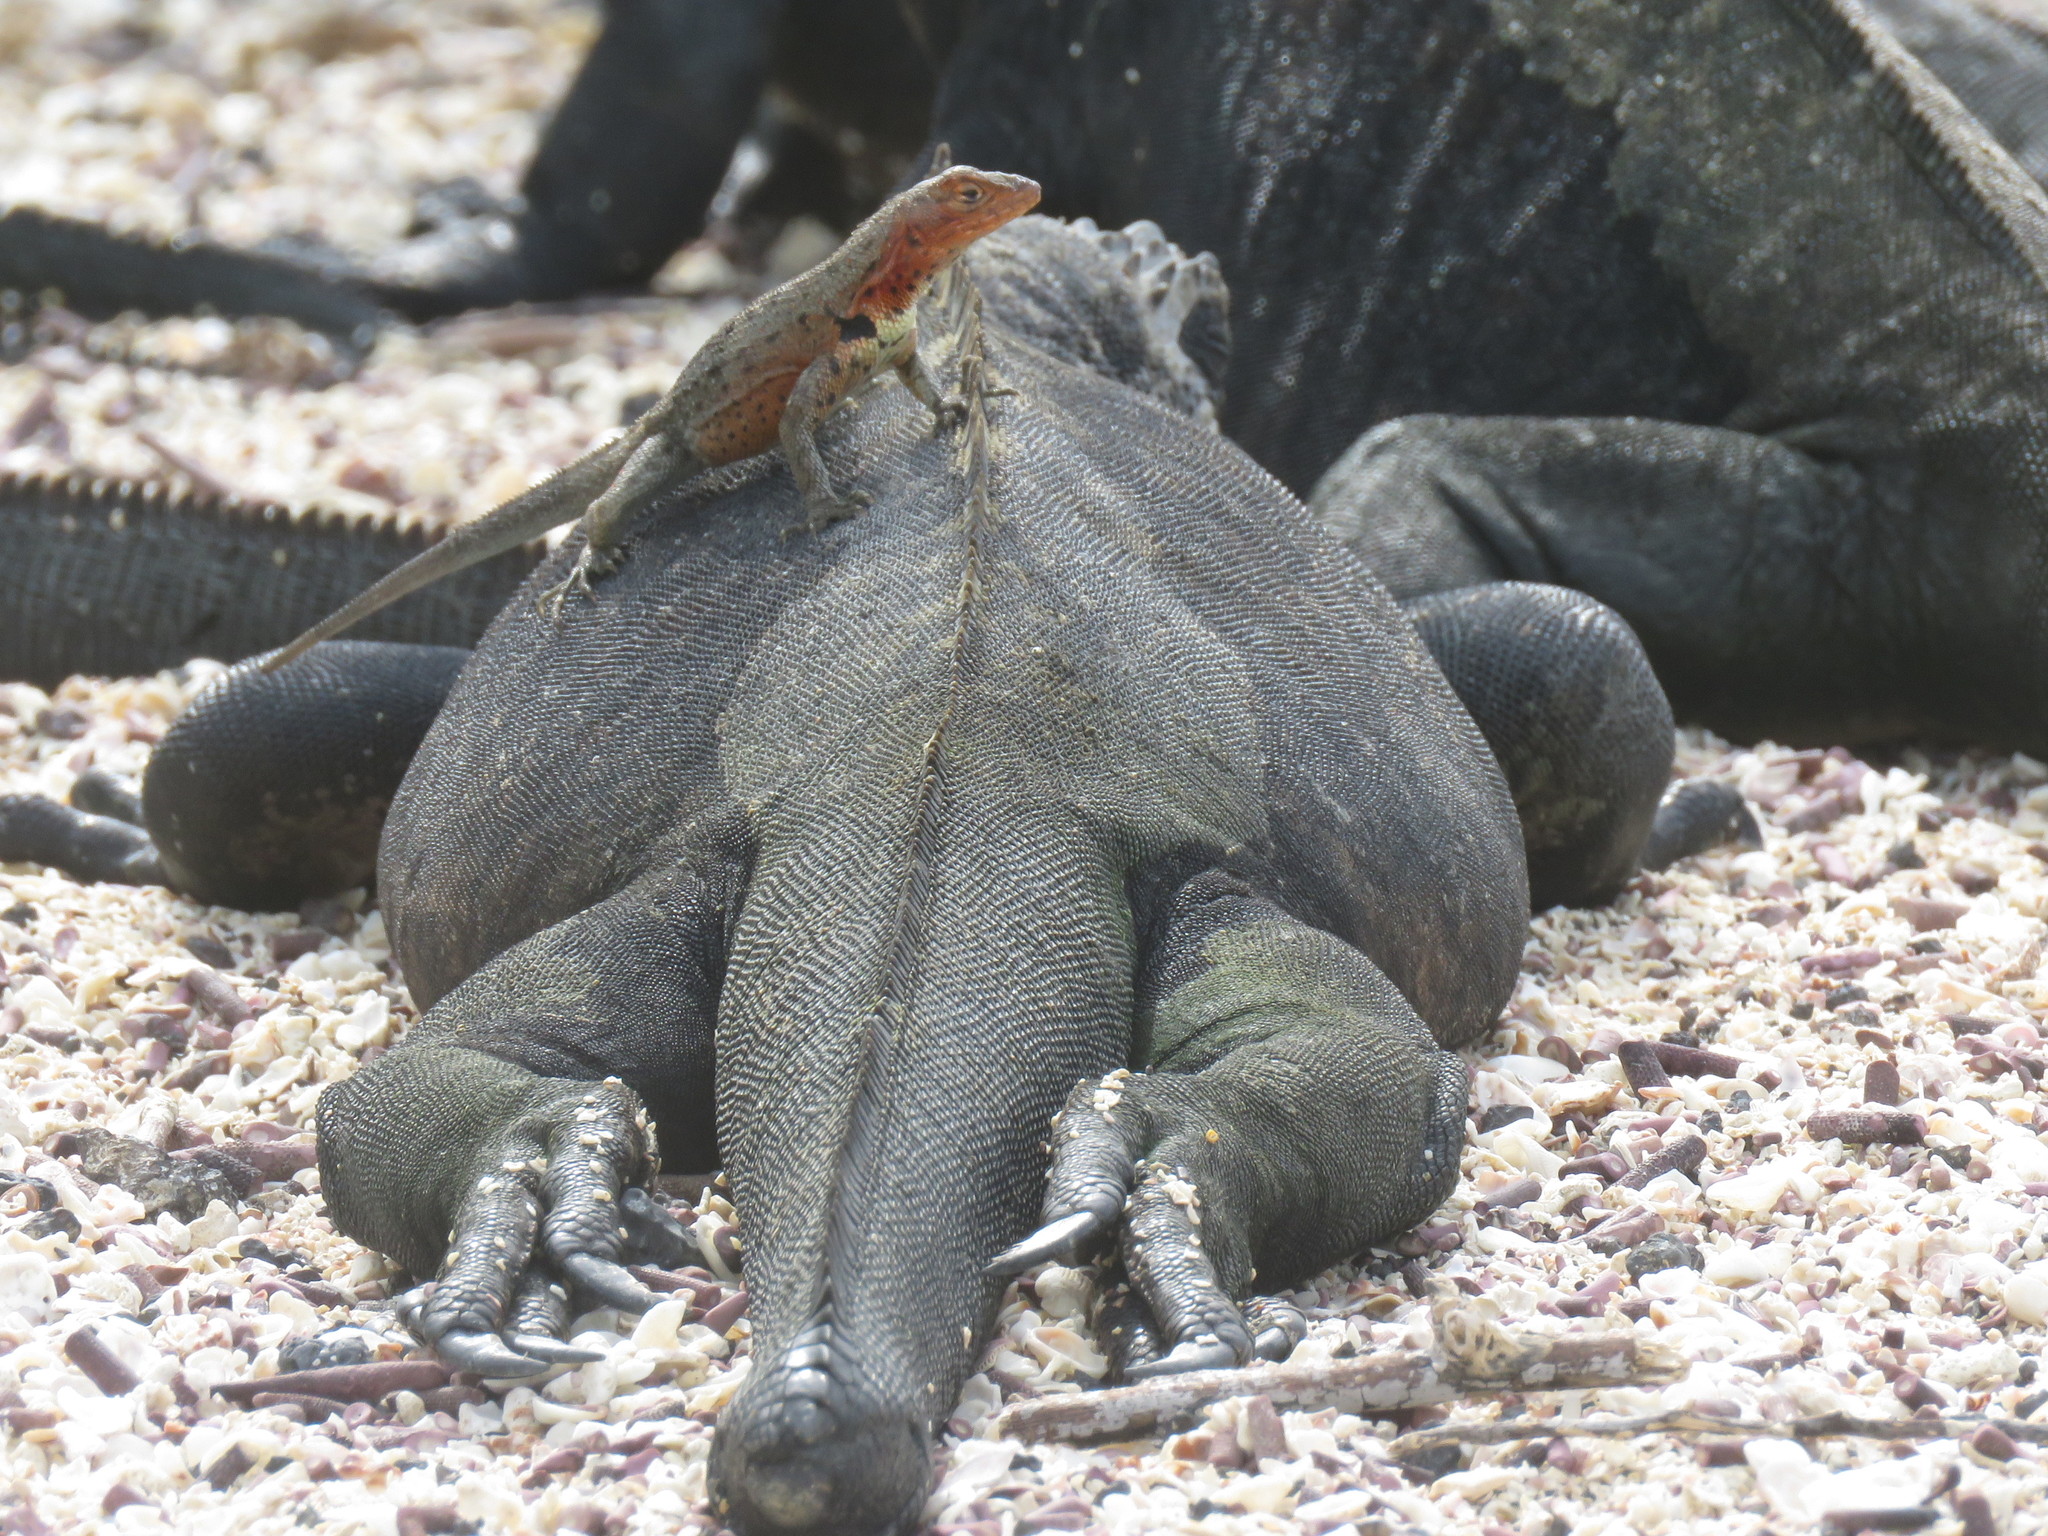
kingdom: Animalia
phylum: Chordata
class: Squamata
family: Tropiduridae
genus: Microlophus
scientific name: Microlophus albemarlensis
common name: Galapagos lava lizard
